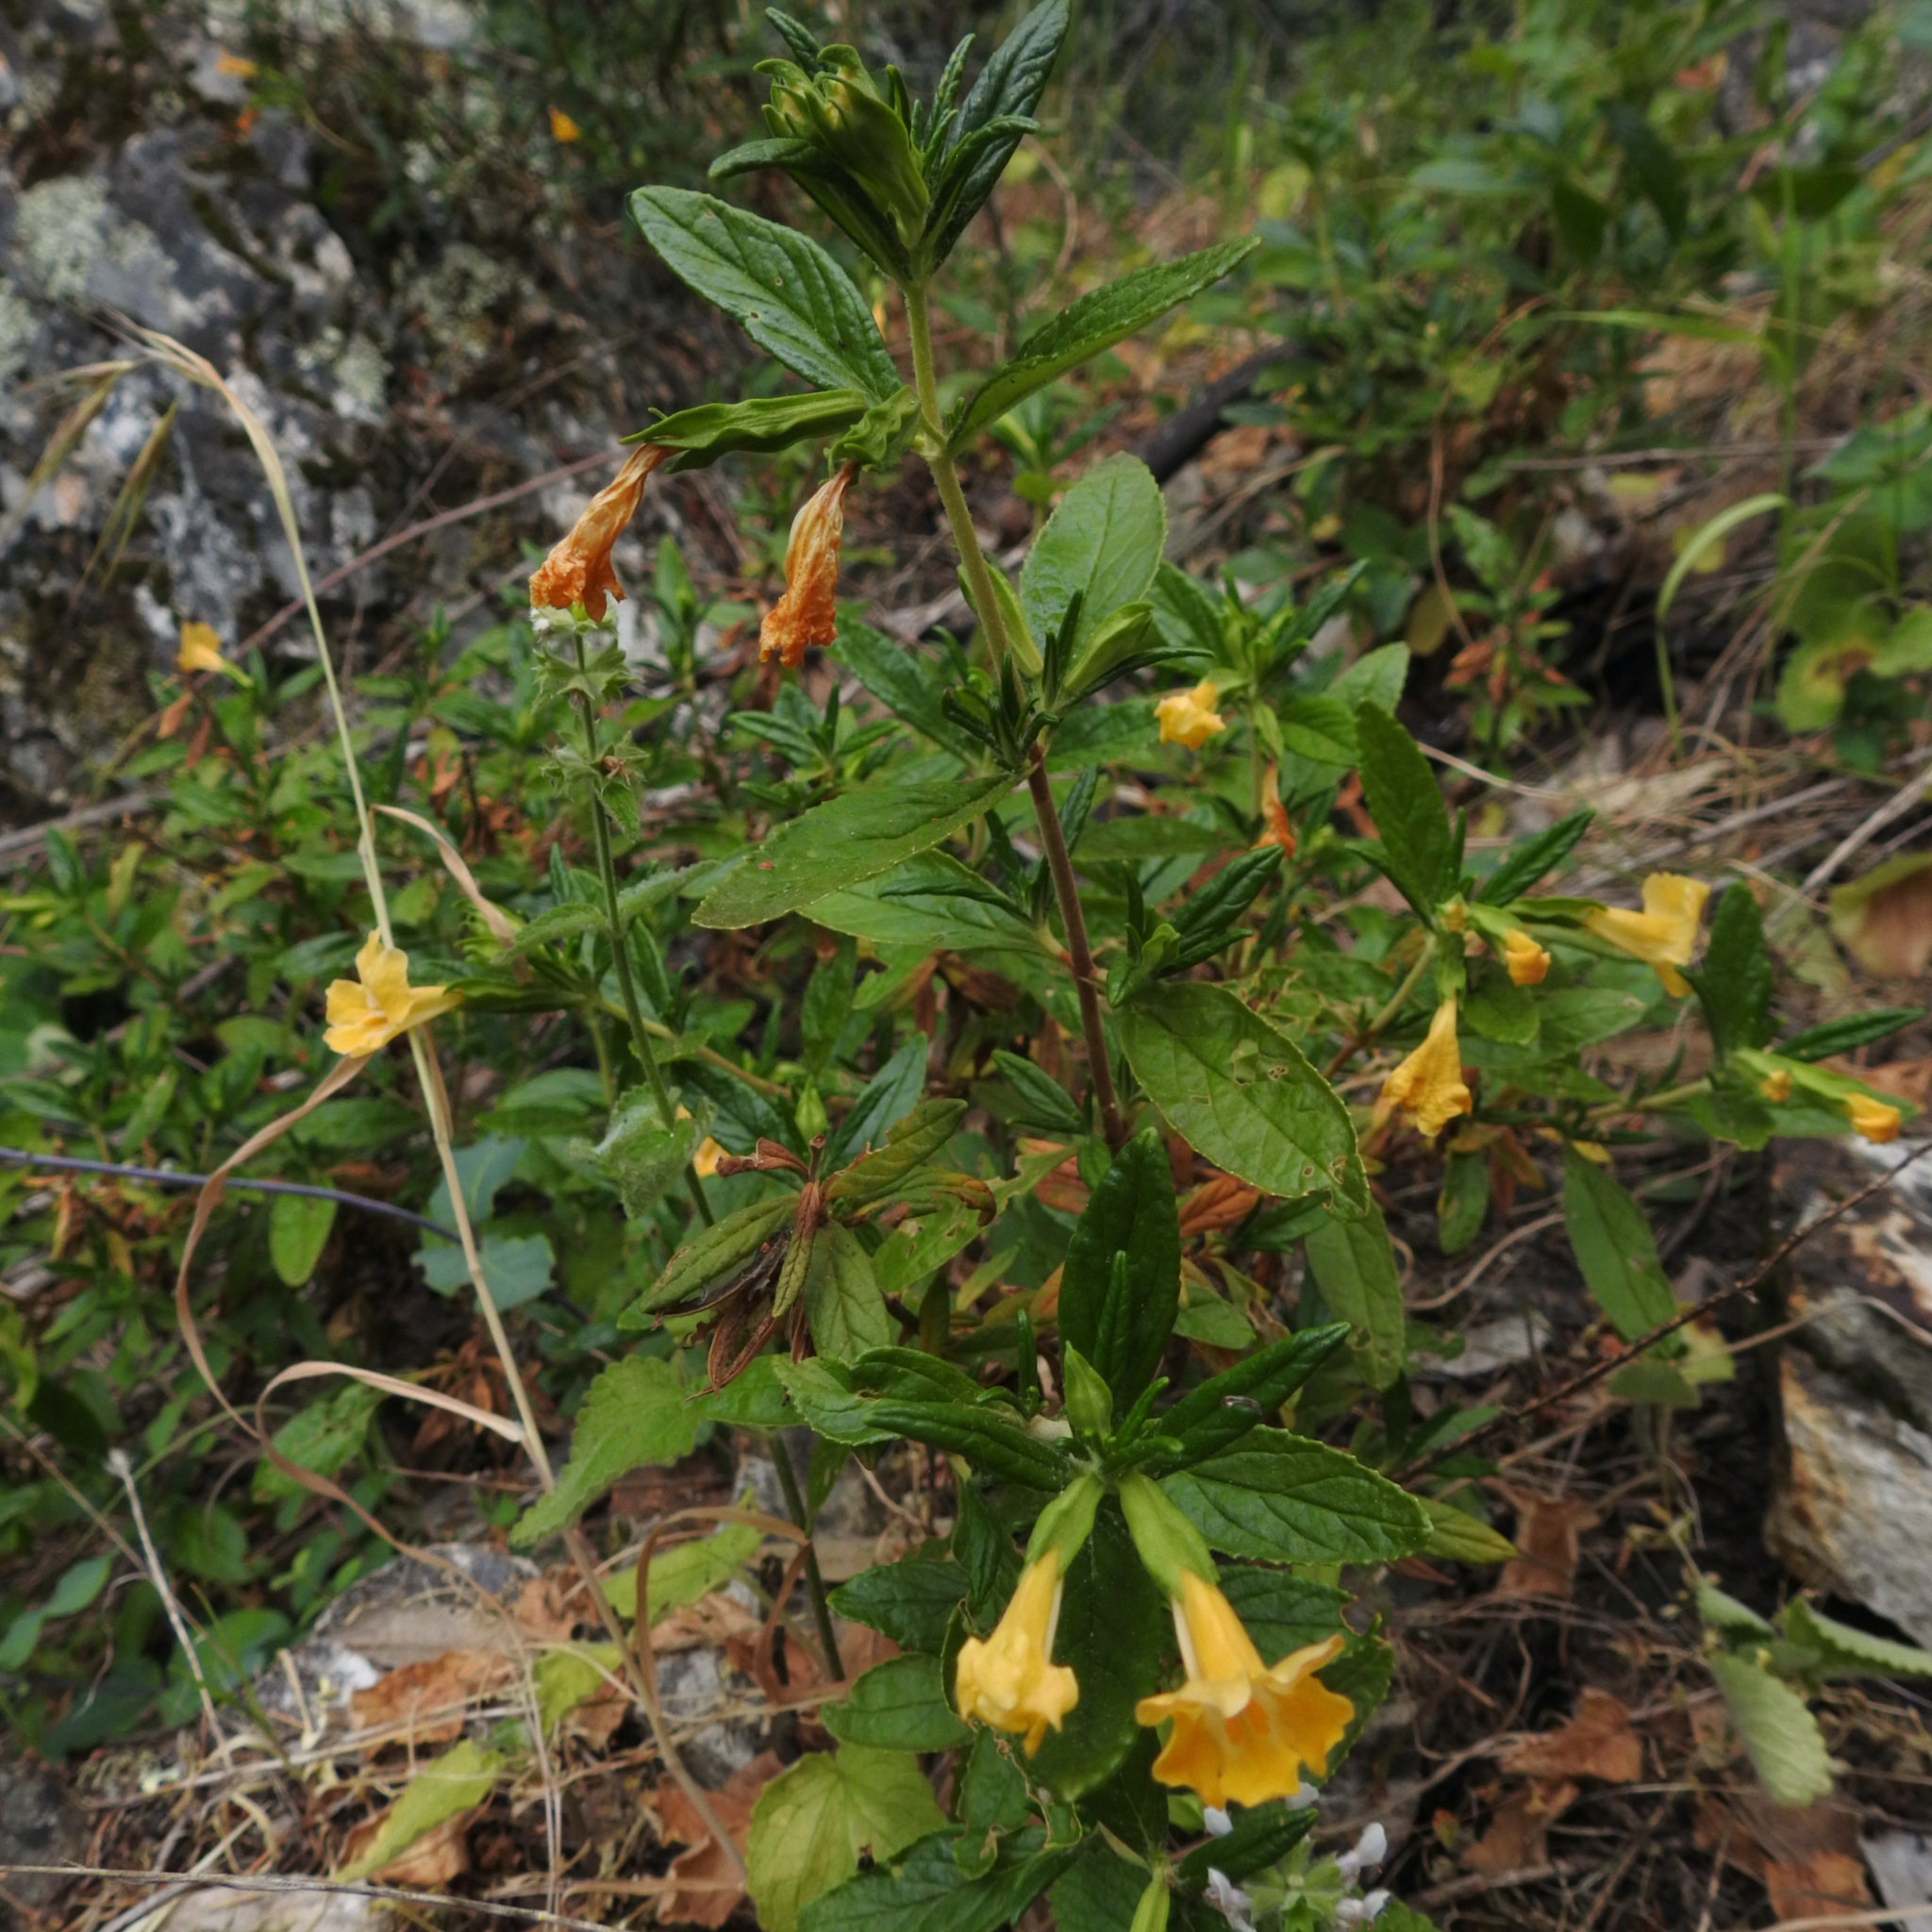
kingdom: Plantae
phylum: Tracheophyta
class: Magnoliopsida
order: Lamiales
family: Phrymaceae
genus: Diplacus
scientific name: Diplacus aurantiacus
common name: Bush monkey-flower
